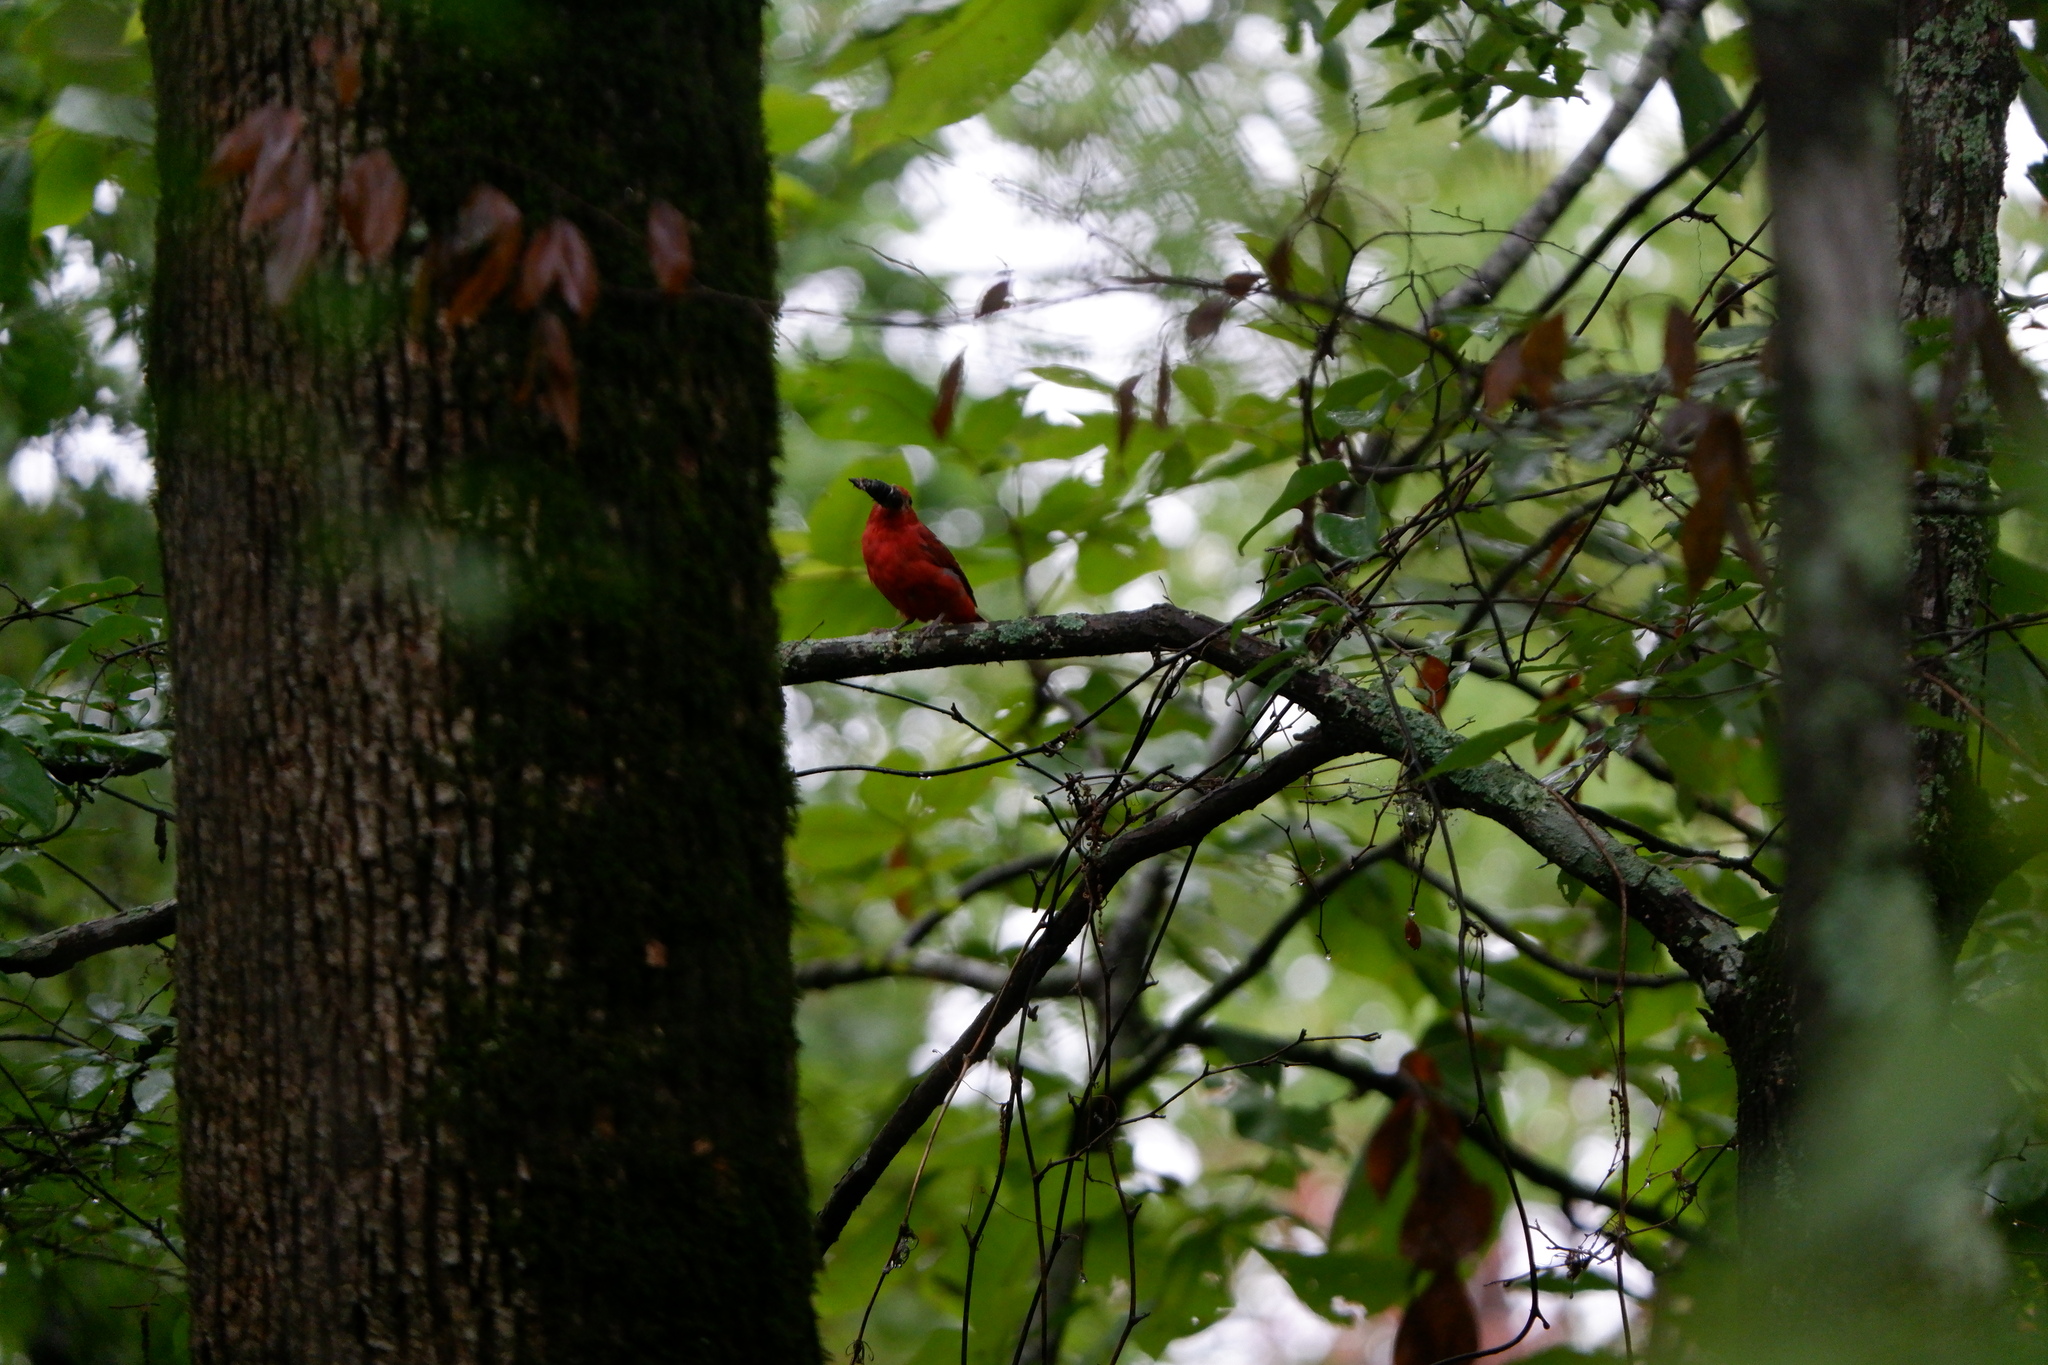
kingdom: Animalia
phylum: Chordata
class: Aves
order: Passeriformes
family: Cardinalidae
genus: Piranga
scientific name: Piranga rubra
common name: Summer tanager
